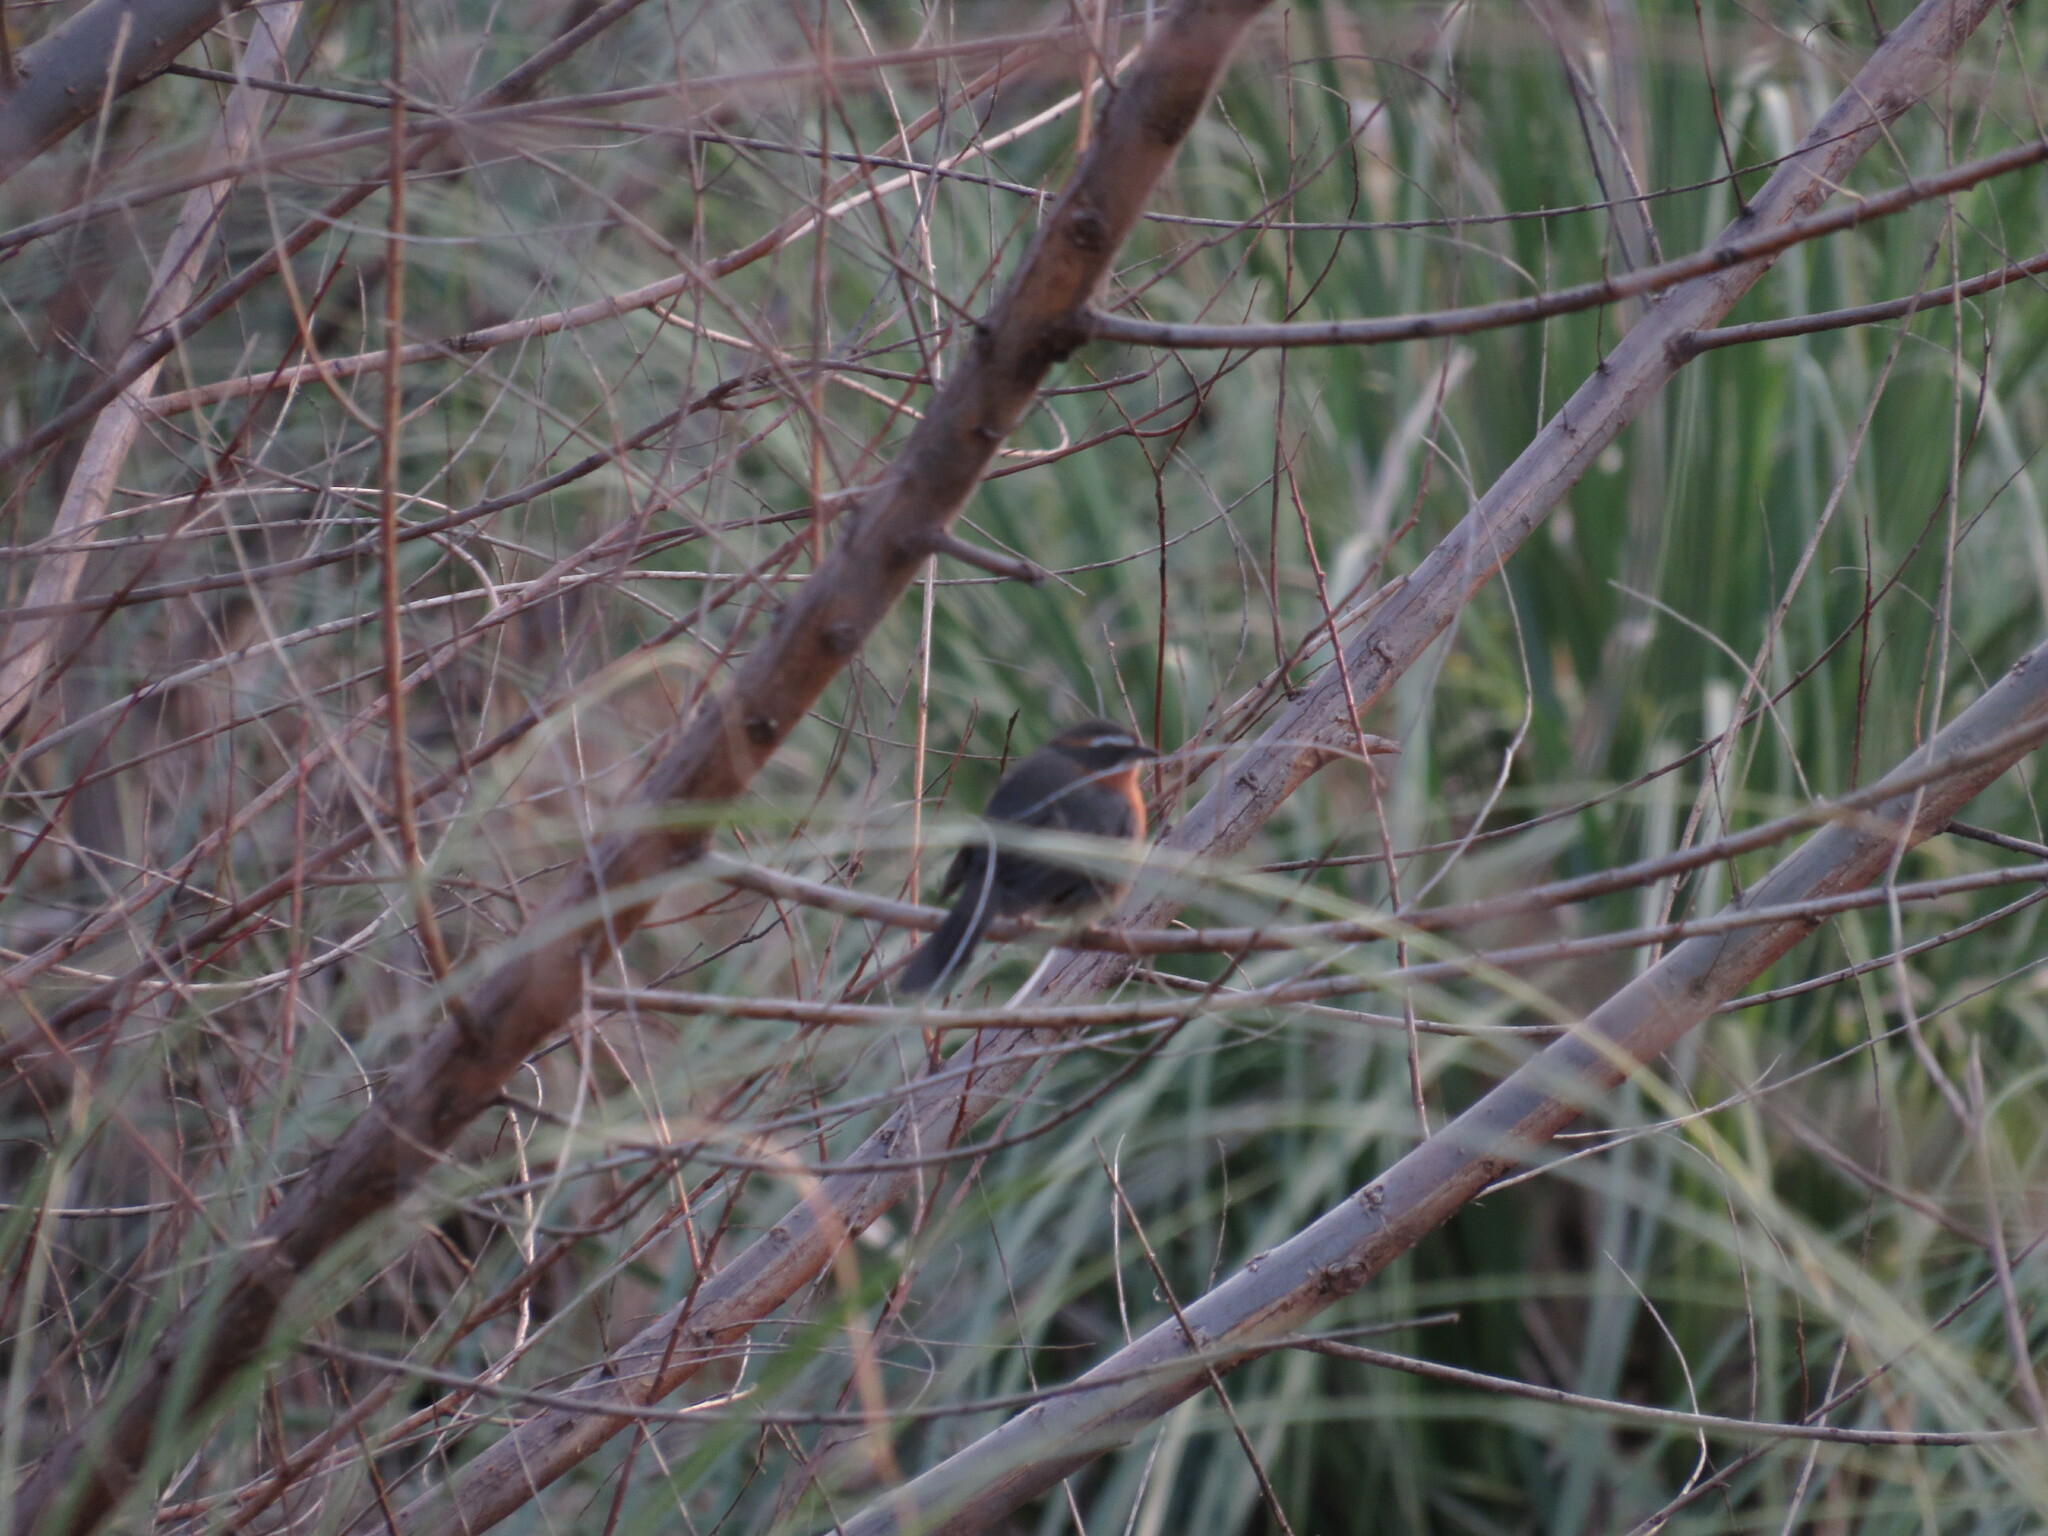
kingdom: Animalia
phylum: Chordata
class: Aves
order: Passeriformes
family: Thraupidae
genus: Poospiza
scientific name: Poospiza nigrorufa
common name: Black-and-rufous warbling finch
